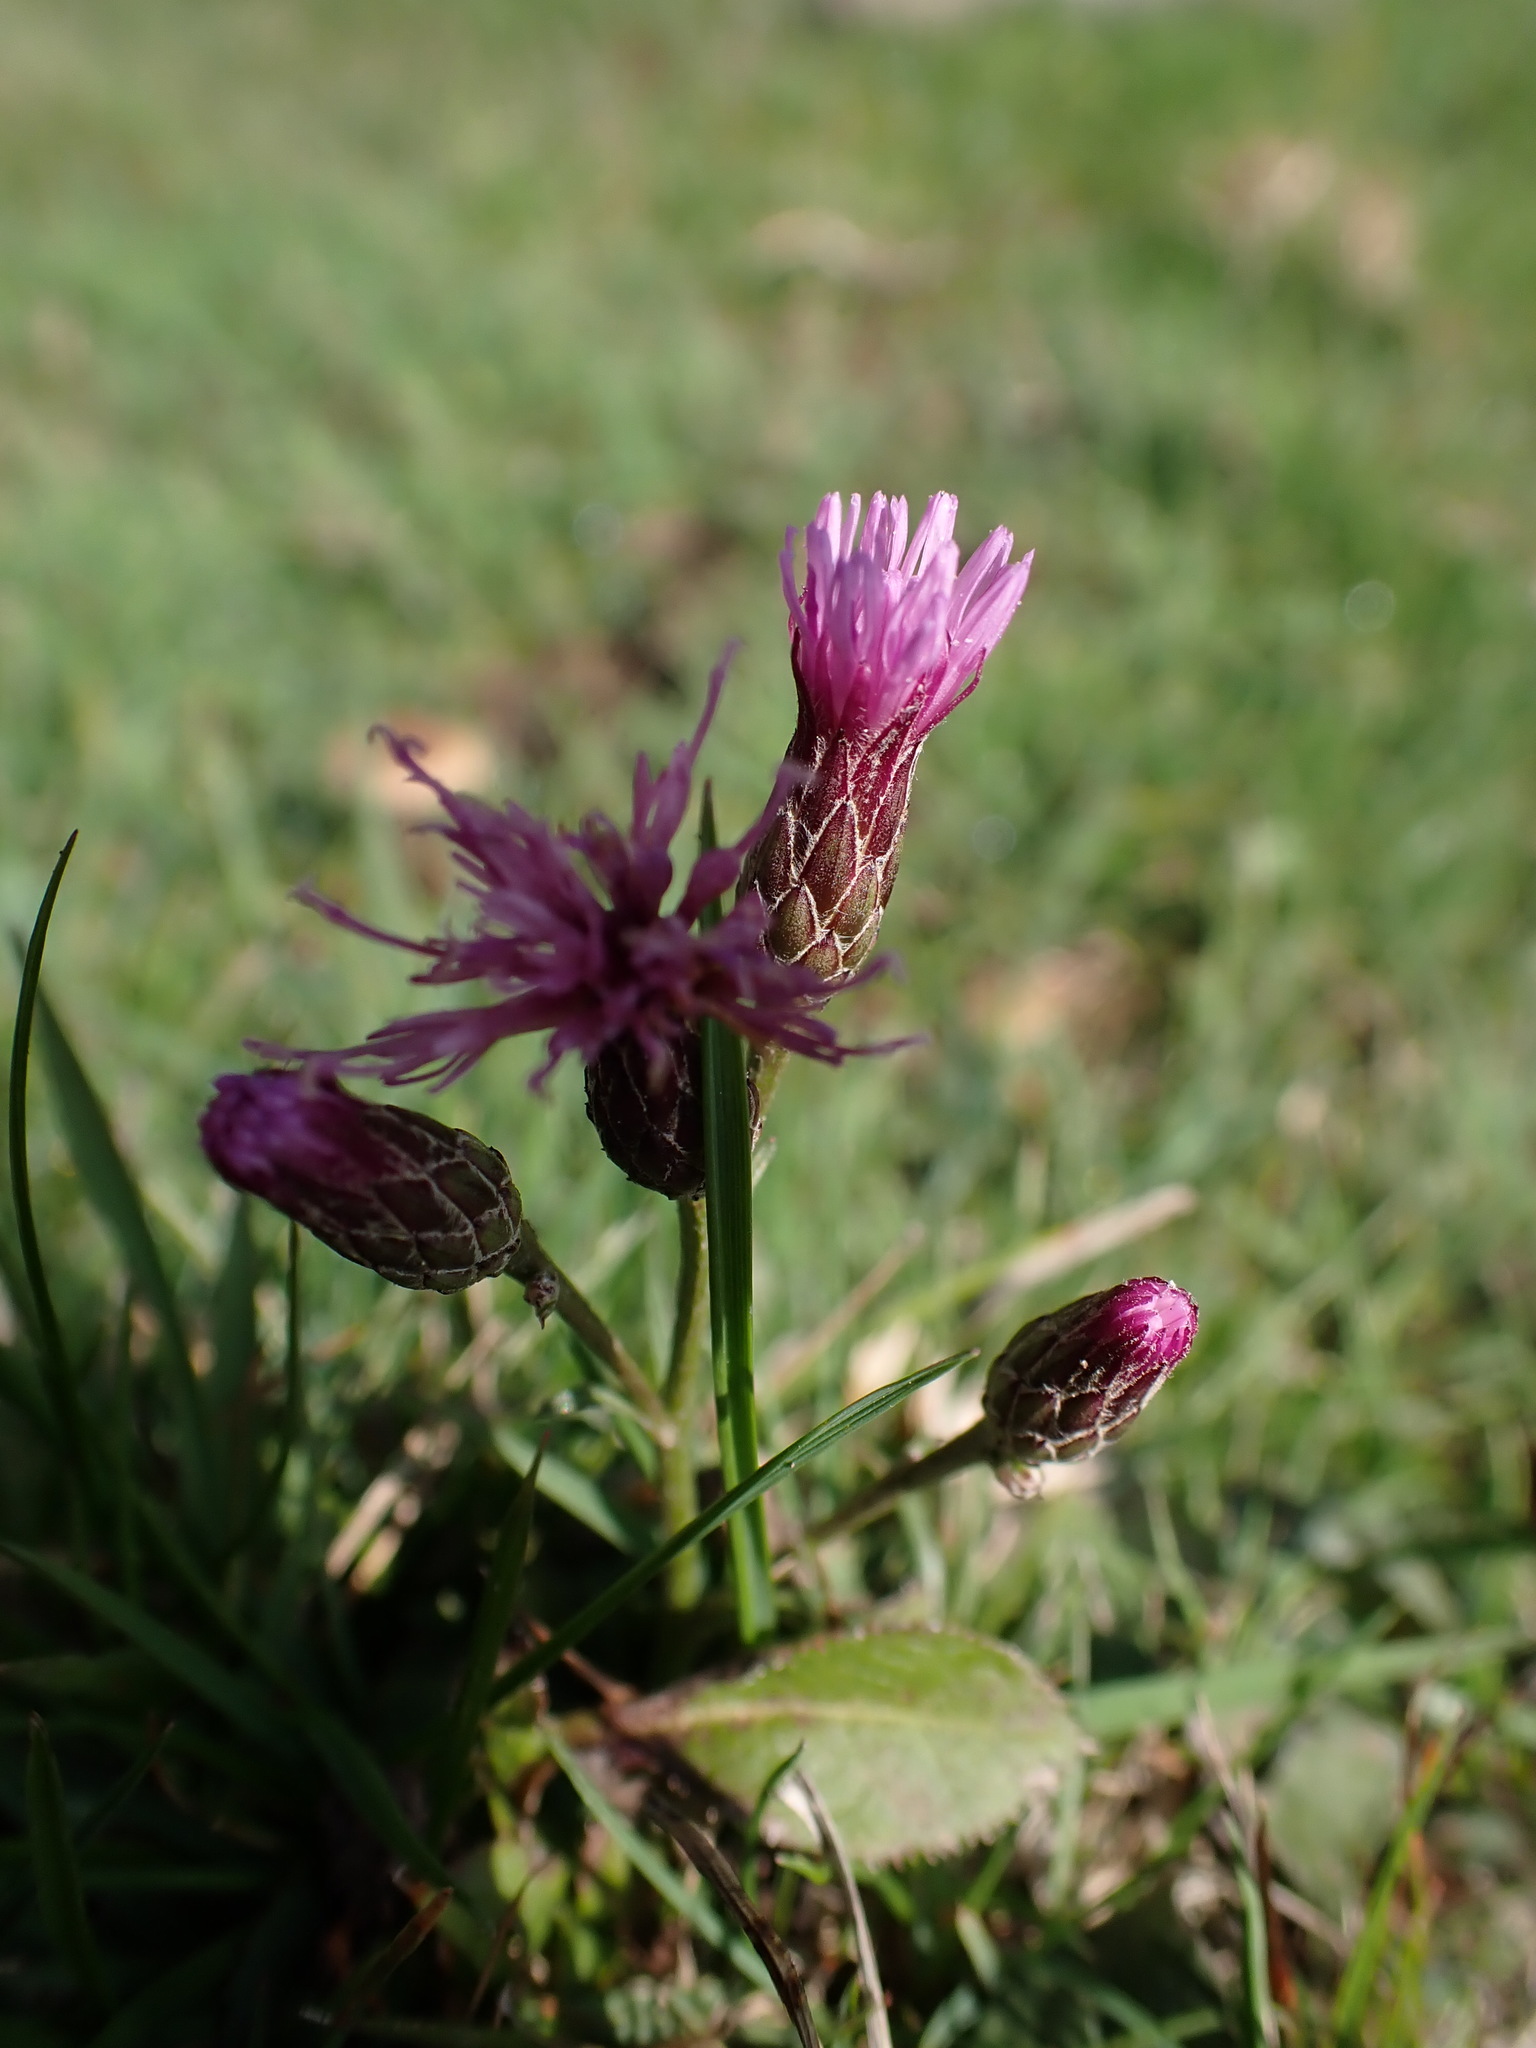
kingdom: Plantae
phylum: Tracheophyta
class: Magnoliopsida
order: Asterales
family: Asteraceae
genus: Serratula
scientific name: Serratula tinctoria
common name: Saw-wort
